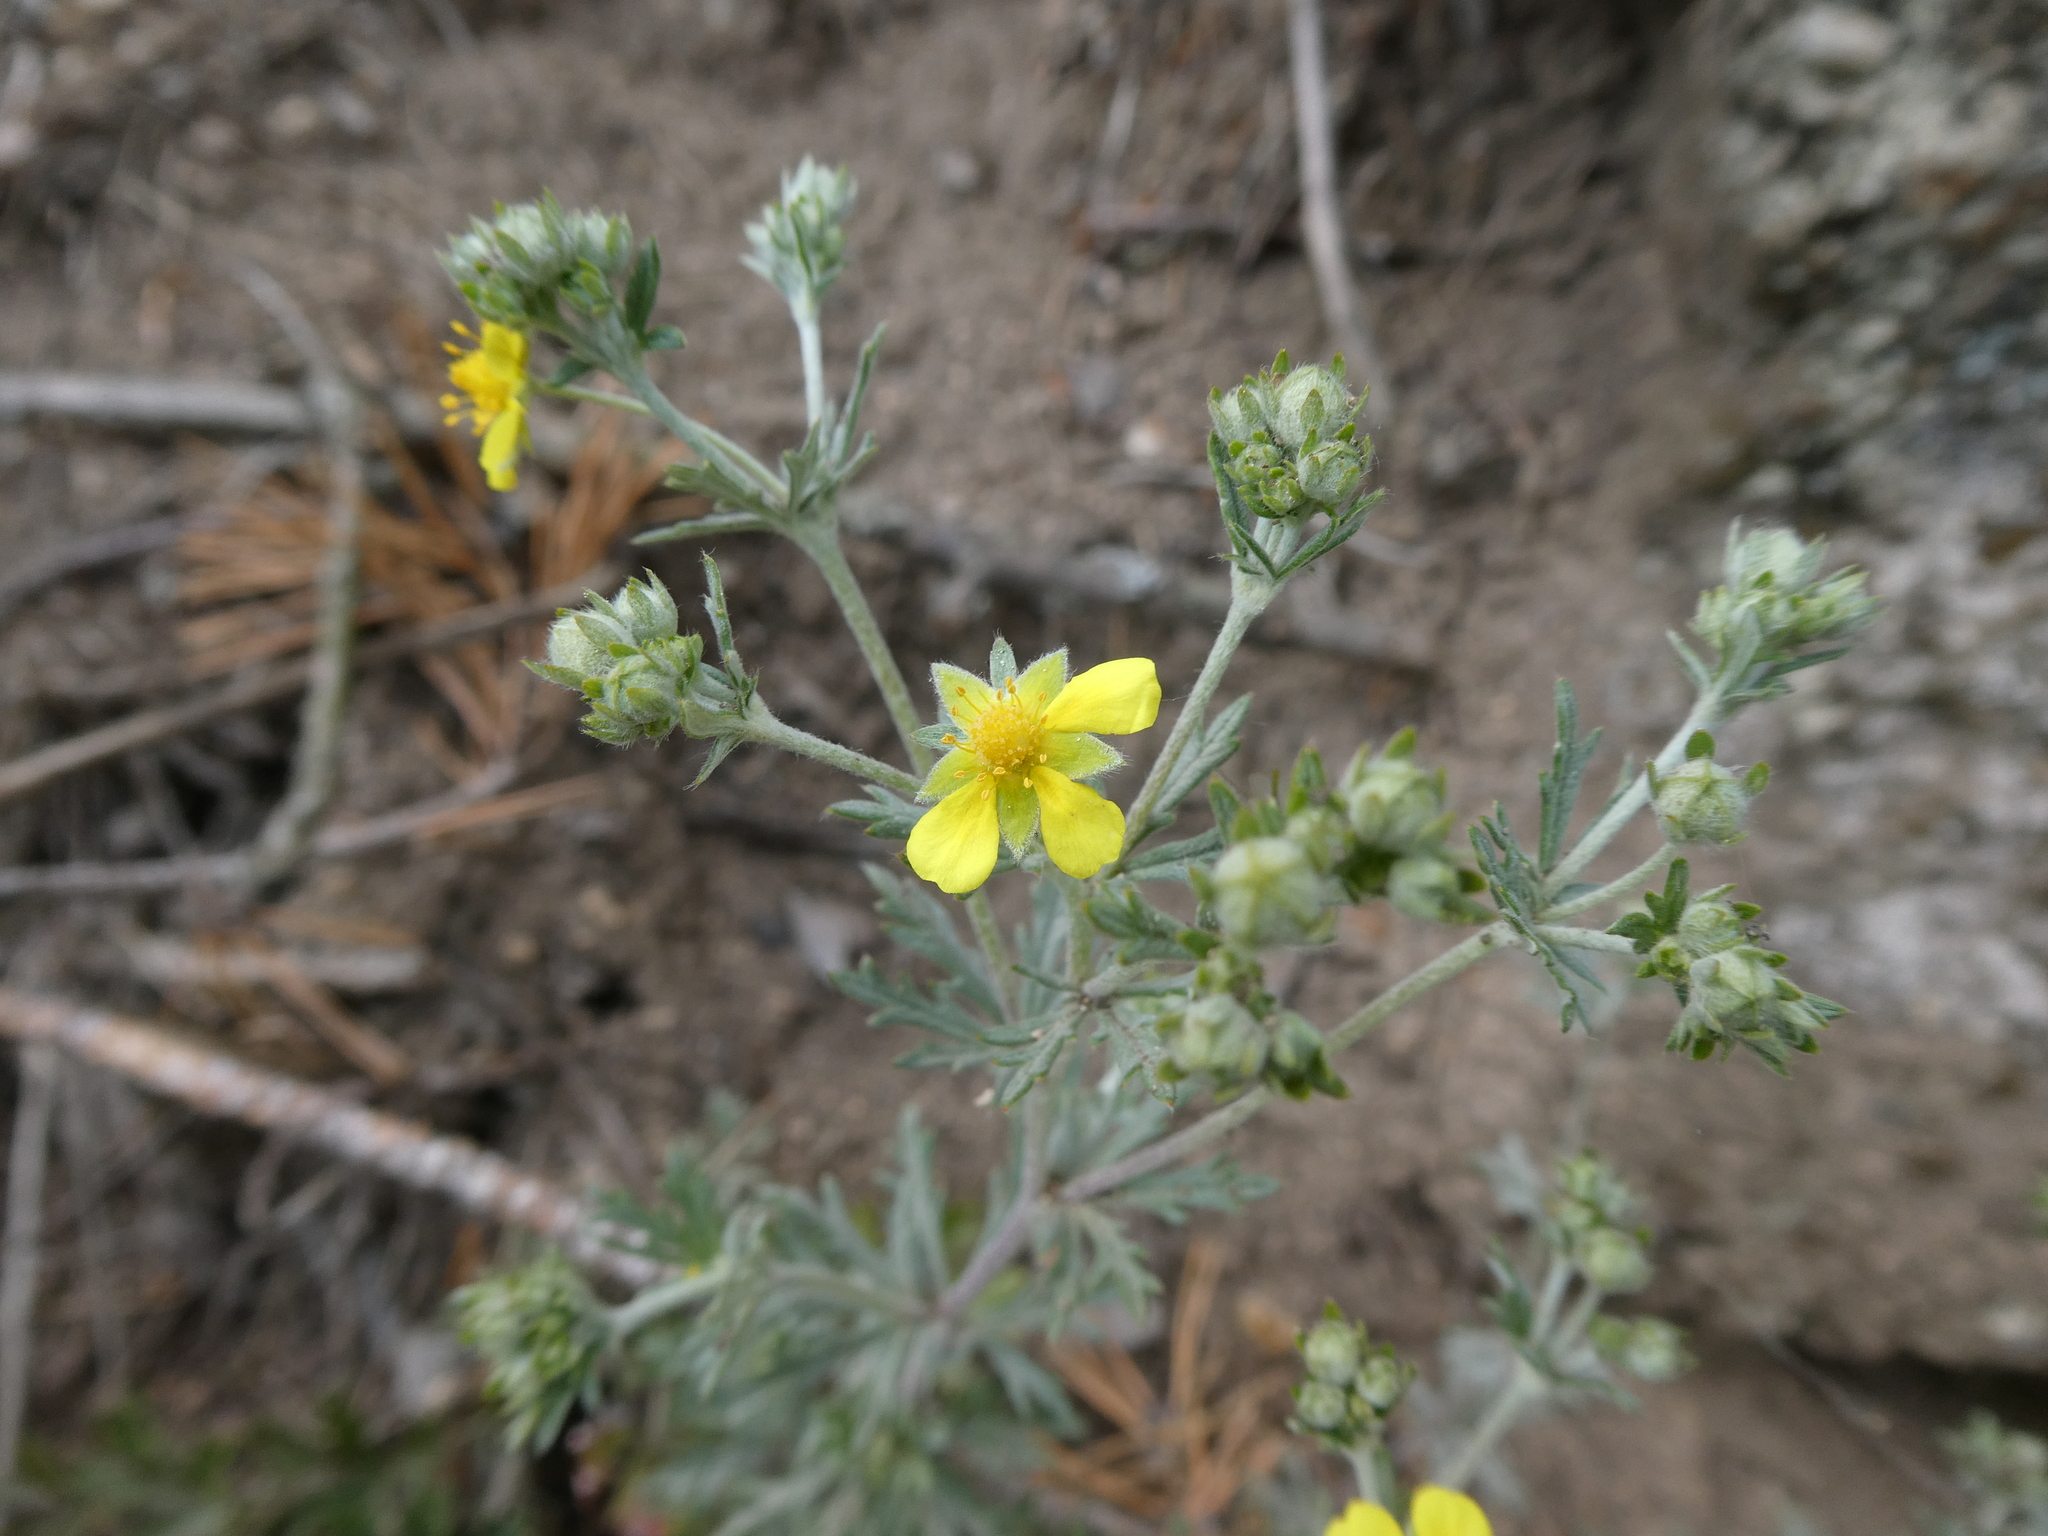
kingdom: Plantae
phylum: Tracheophyta
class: Magnoliopsida
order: Rosales
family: Rosaceae
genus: Potentilla
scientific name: Potentilla argentea
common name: Hoary cinquefoil
